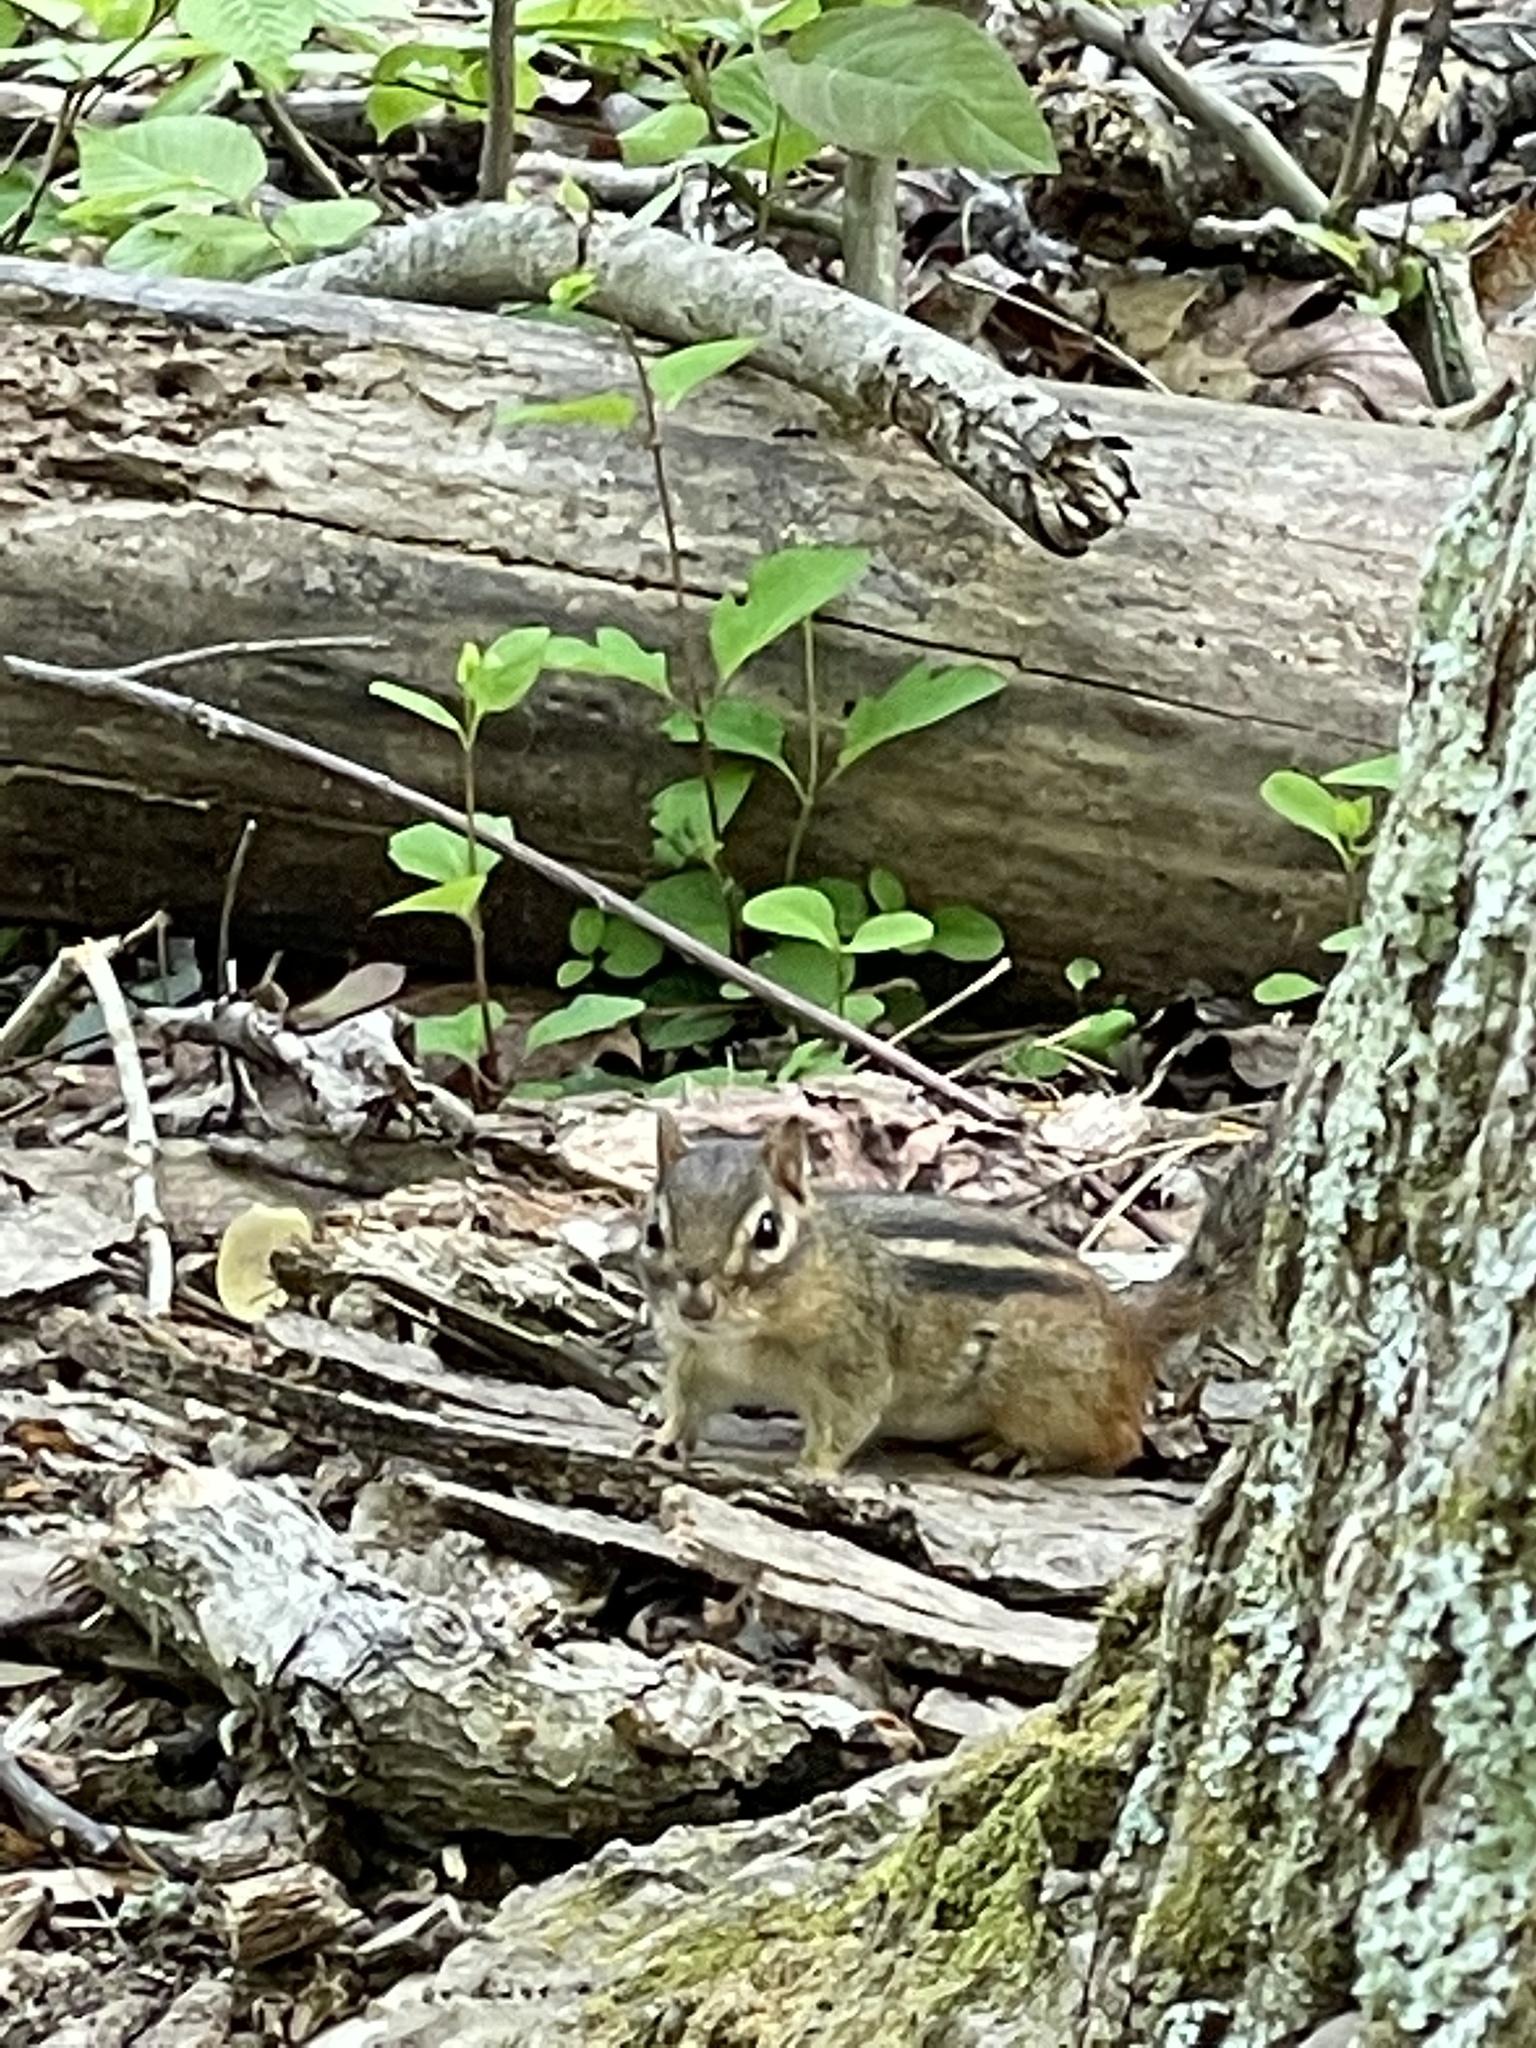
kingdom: Animalia
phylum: Chordata
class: Mammalia
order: Rodentia
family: Sciuridae
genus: Tamias
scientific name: Tamias striatus
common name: Eastern chipmunk
